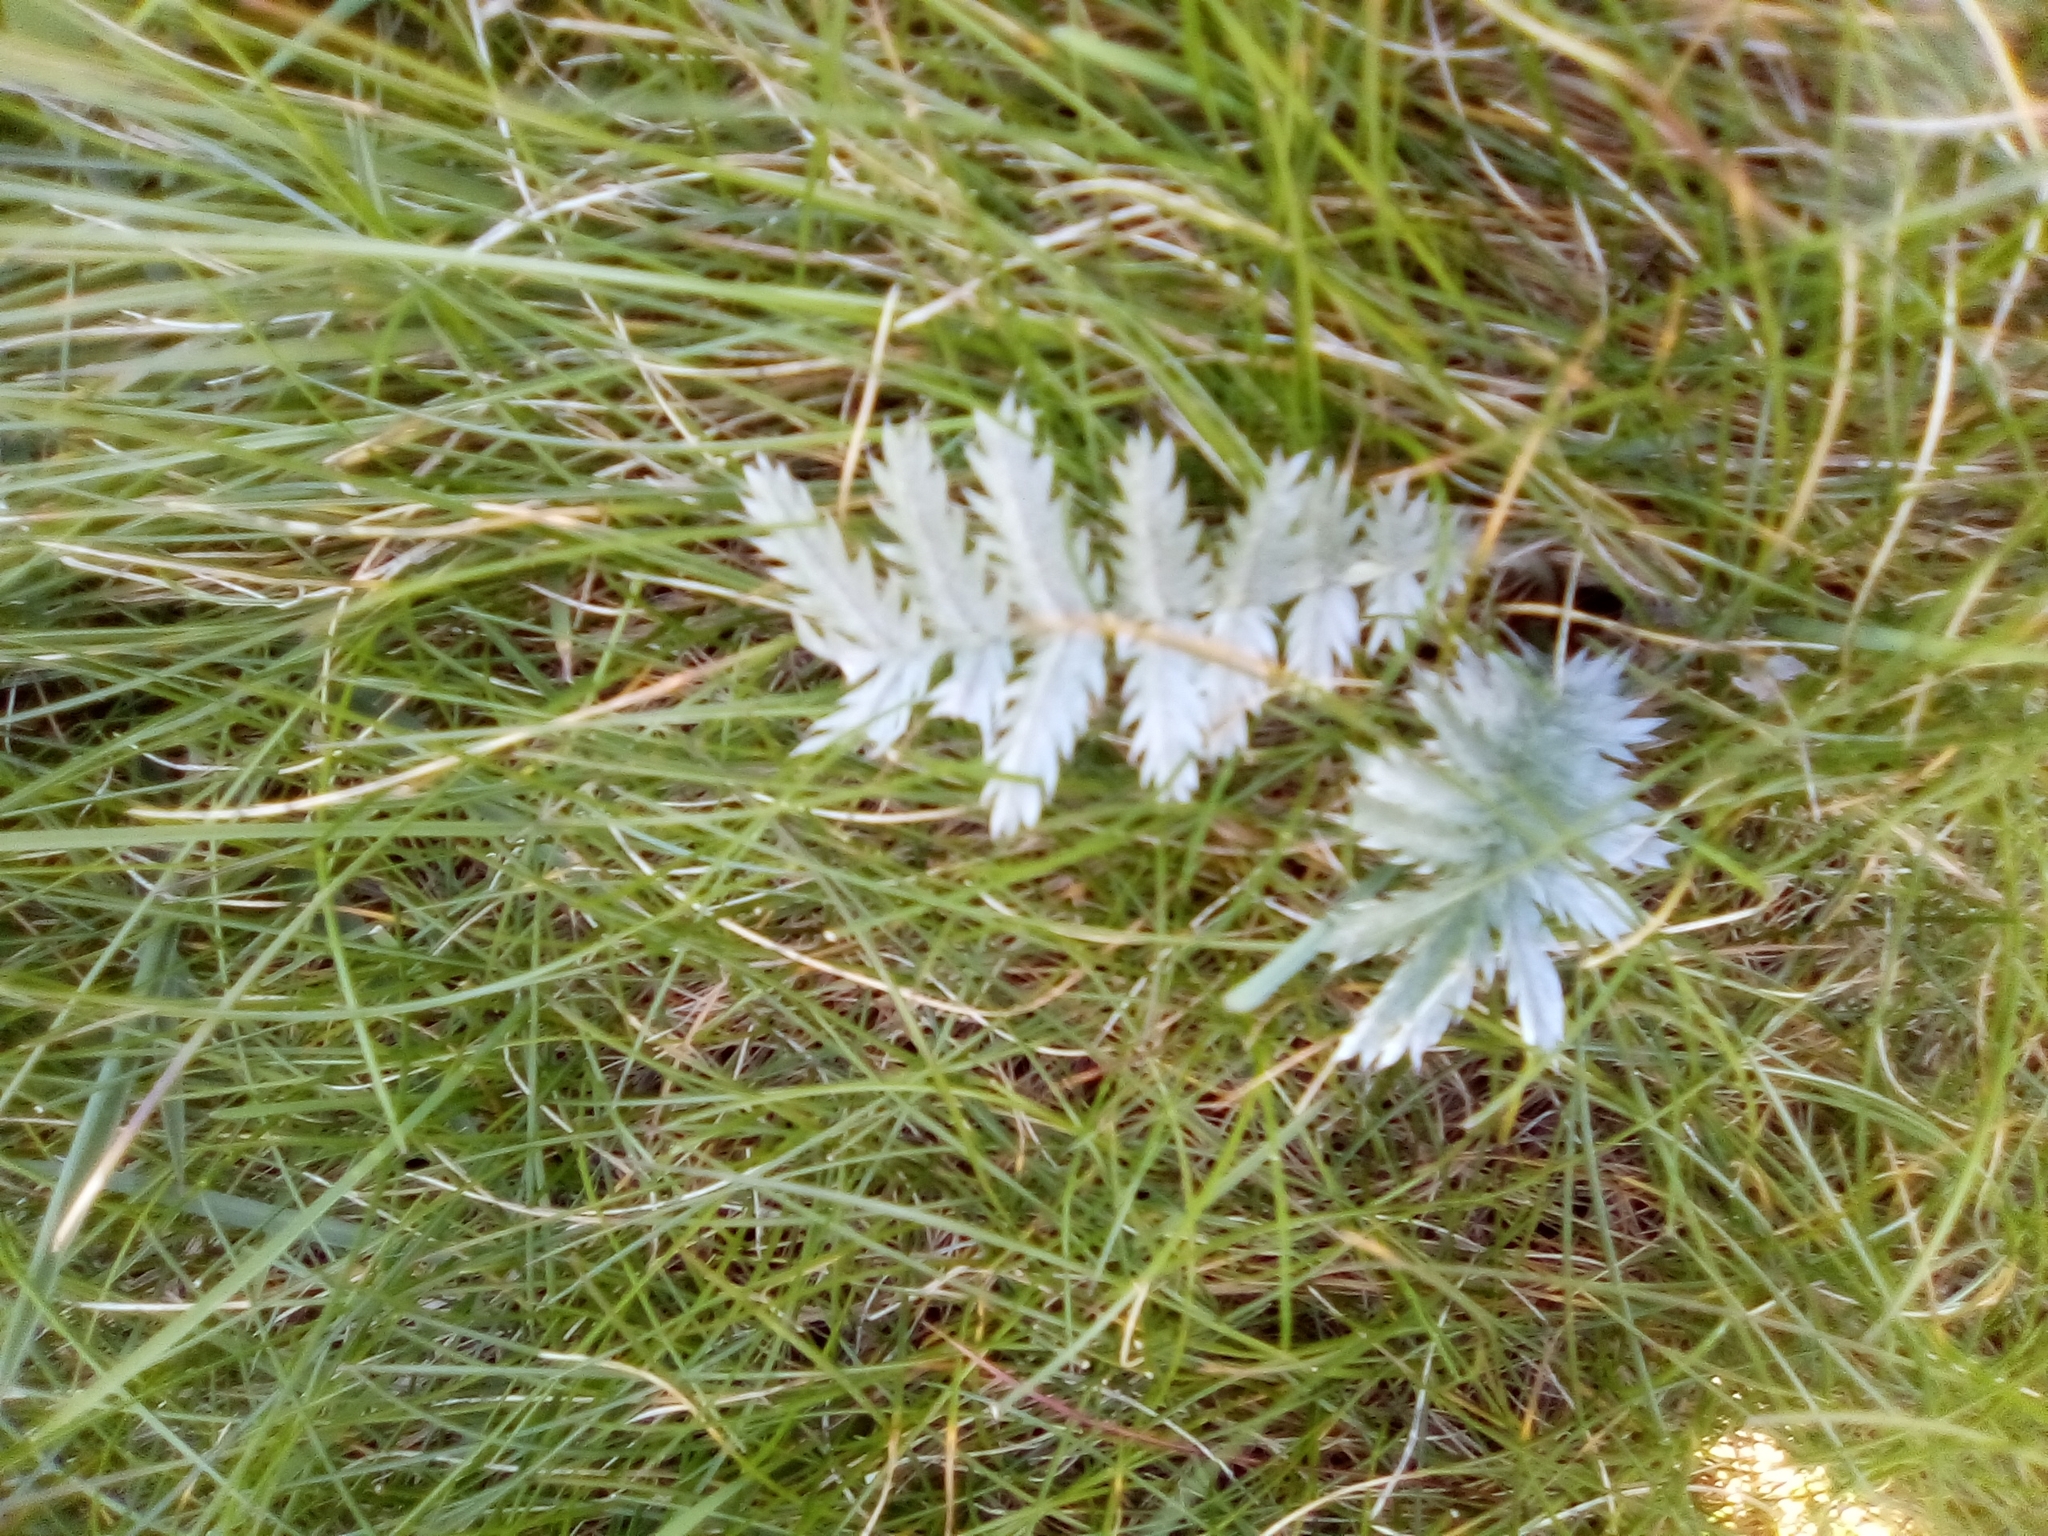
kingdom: Plantae
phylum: Tracheophyta
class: Magnoliopsida
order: Rosales
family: Rosaceae
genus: Argentina
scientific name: Argentina anserina
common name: Common silverweed
